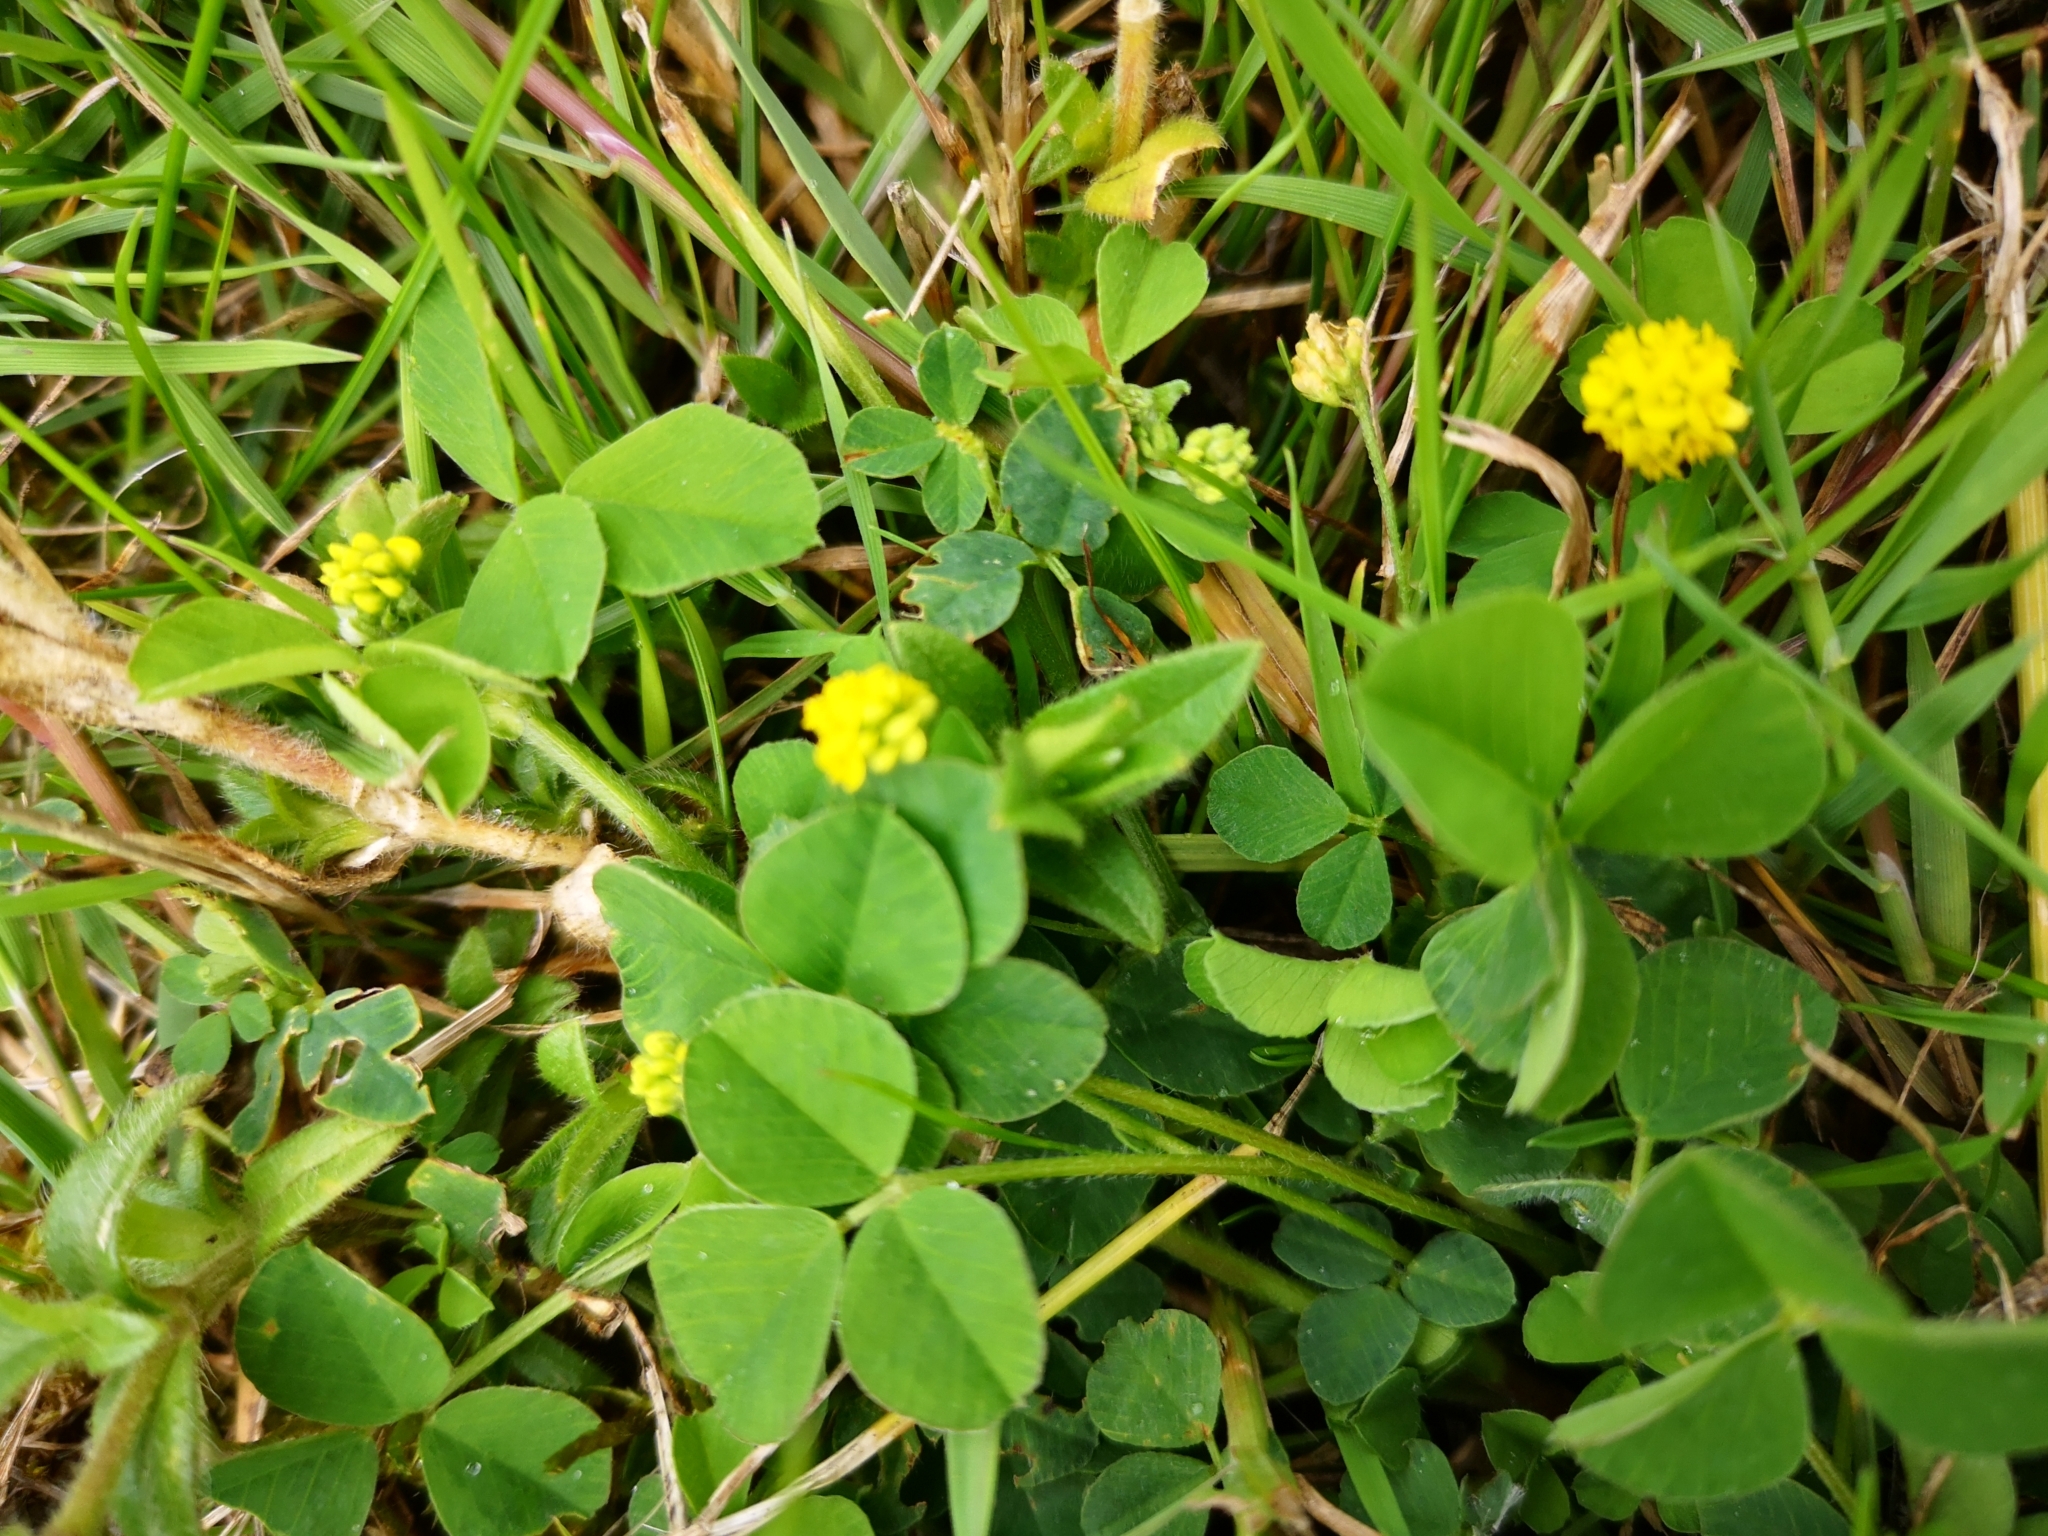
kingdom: Plantae
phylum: Tracheophyta
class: Magnoliopsida
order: Fabales
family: Fabaceae
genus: Medicago
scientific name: Medicago lupulina
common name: Black medick
